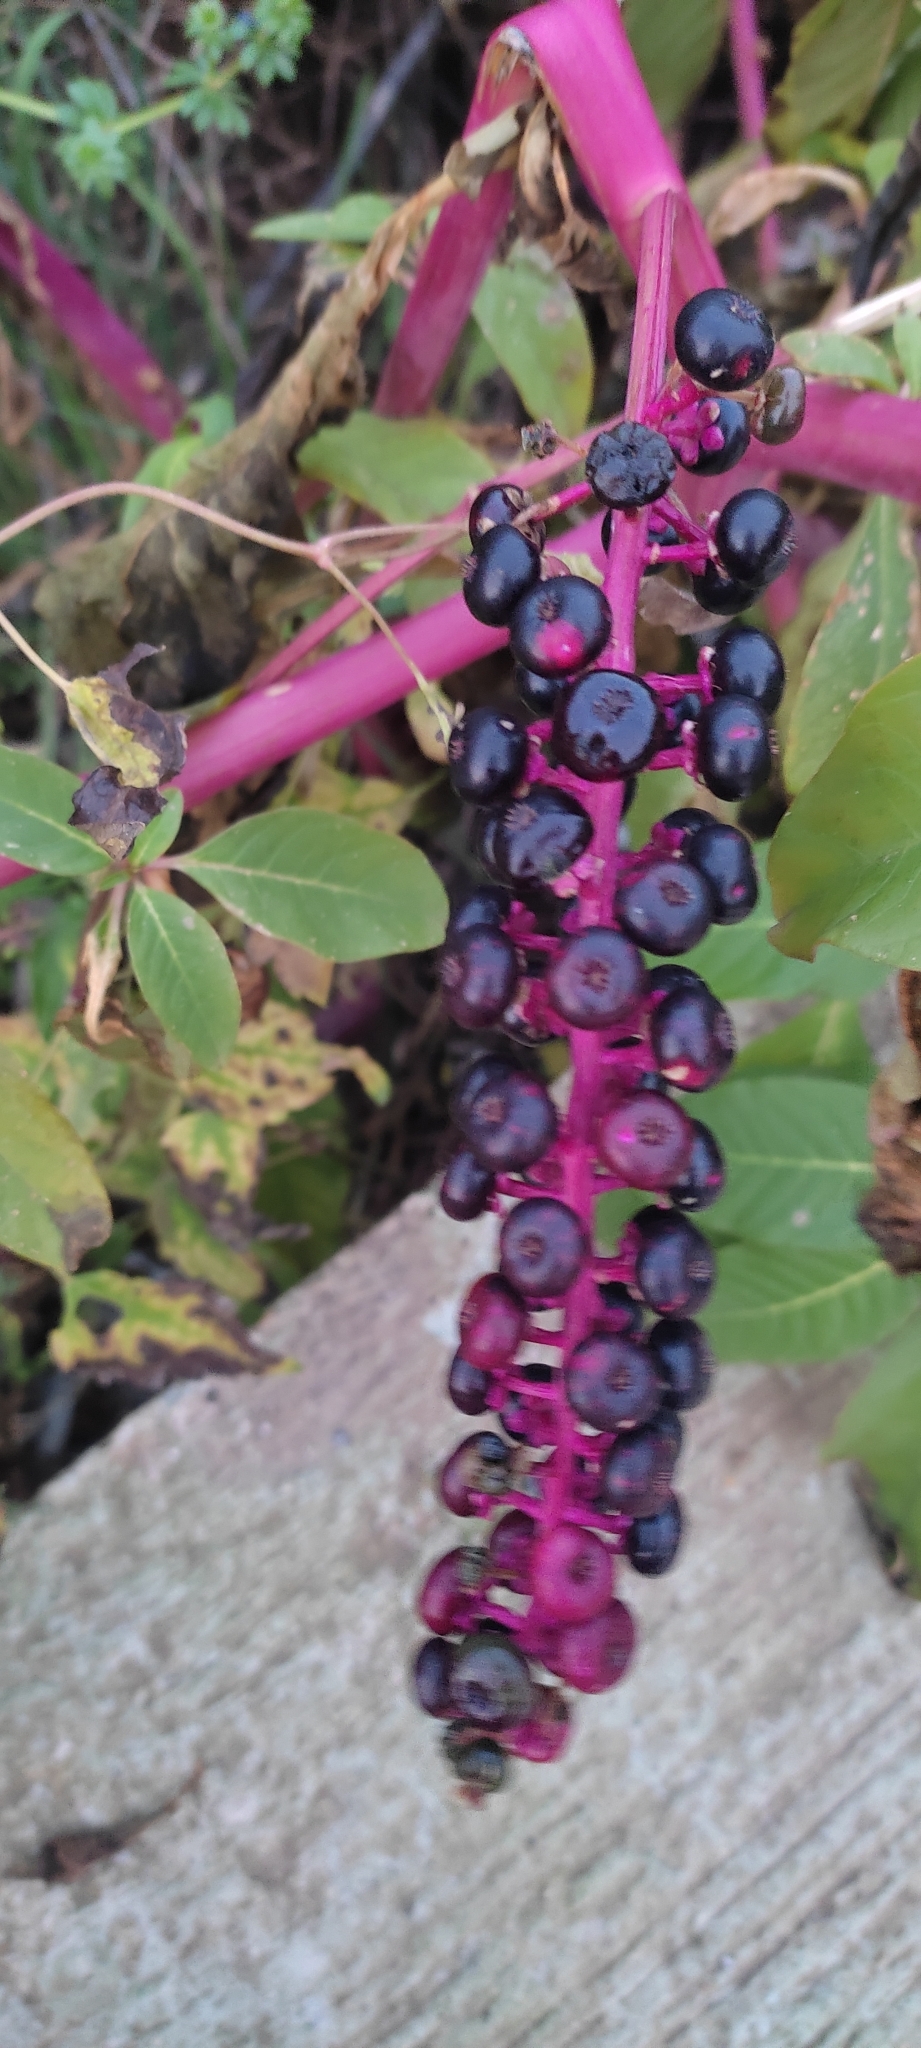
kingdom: Plantae
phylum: Tracheophyta
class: Magnoliopsida
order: Caryophyllales
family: Phytolaccaceae
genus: Phytolacca
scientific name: Phytolacca americana
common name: American pokeweed
